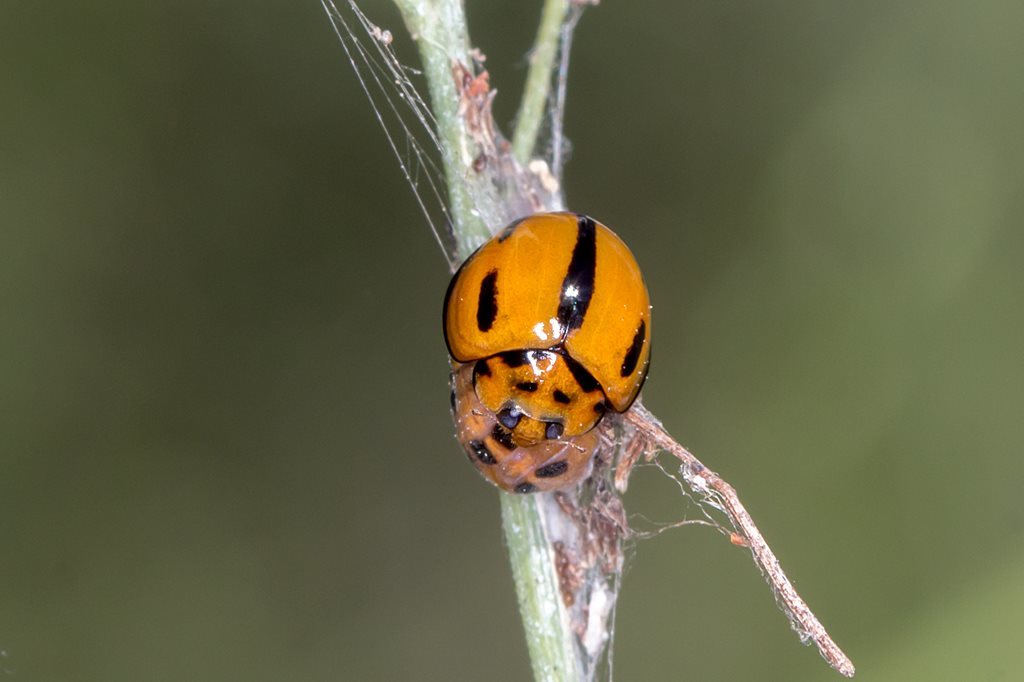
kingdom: Animalia
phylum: Arthropoda
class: Insecta
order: Coleoptera
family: Coccinellidae
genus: Coelophora
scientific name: Coelophora inaequalis
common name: Common australian lady beetle
